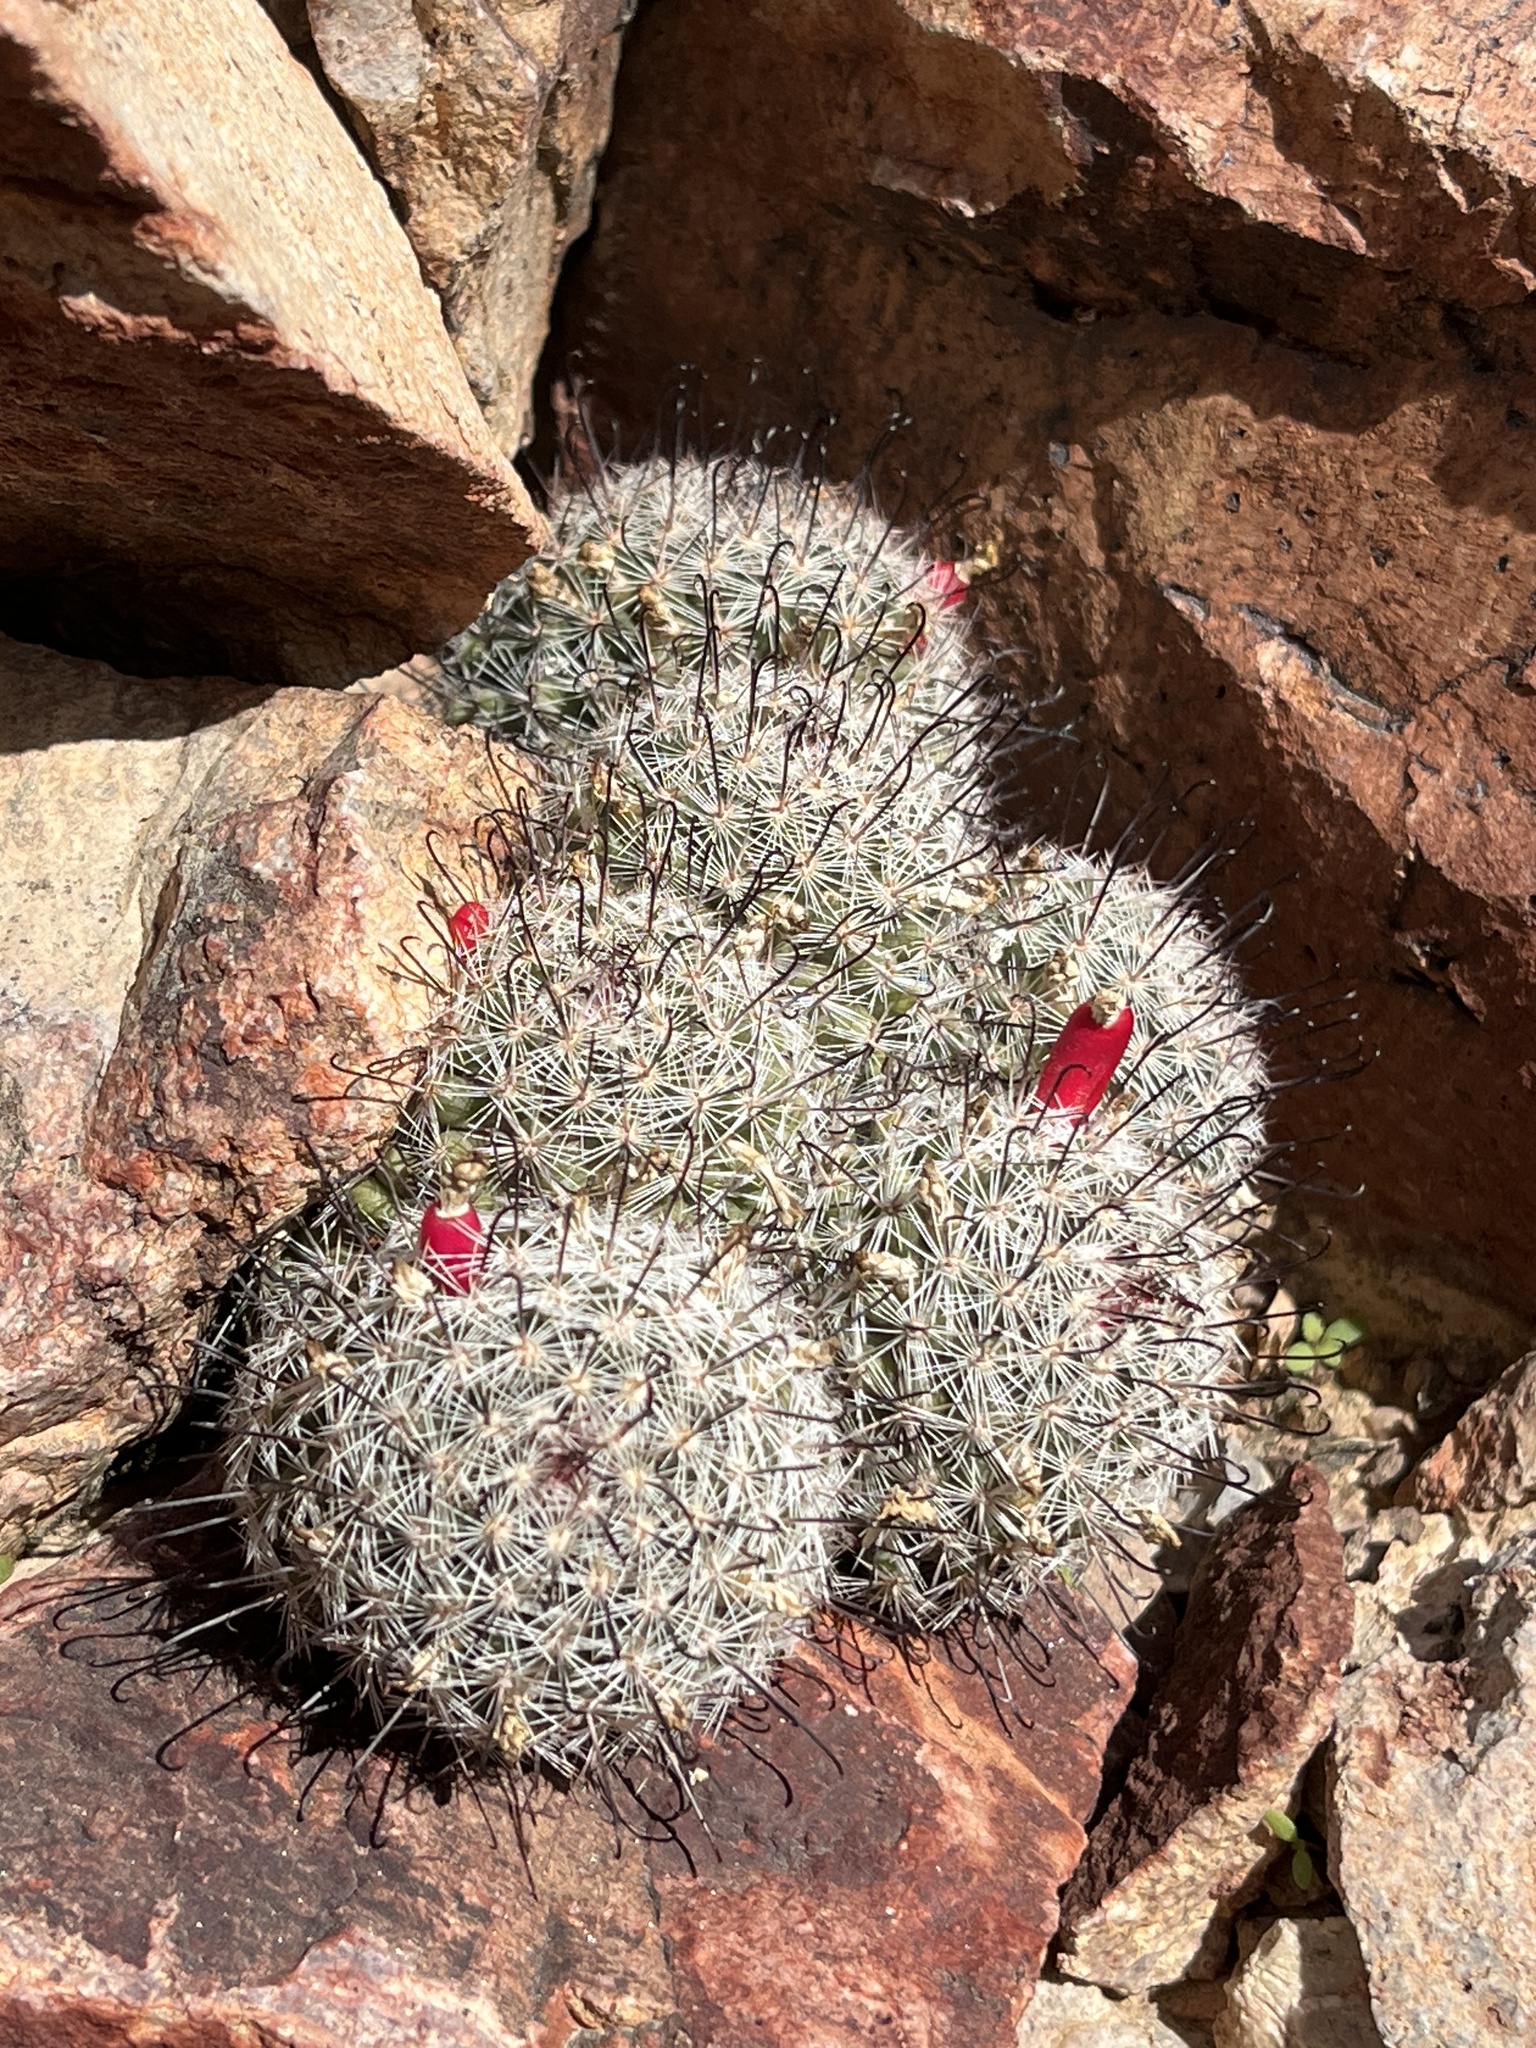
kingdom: Plantae
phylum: Tracheophyta
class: Magnoliopsida
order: Caryophyllales
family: Cactaceae
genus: Cochemiea
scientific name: Cochemiea grahamii
